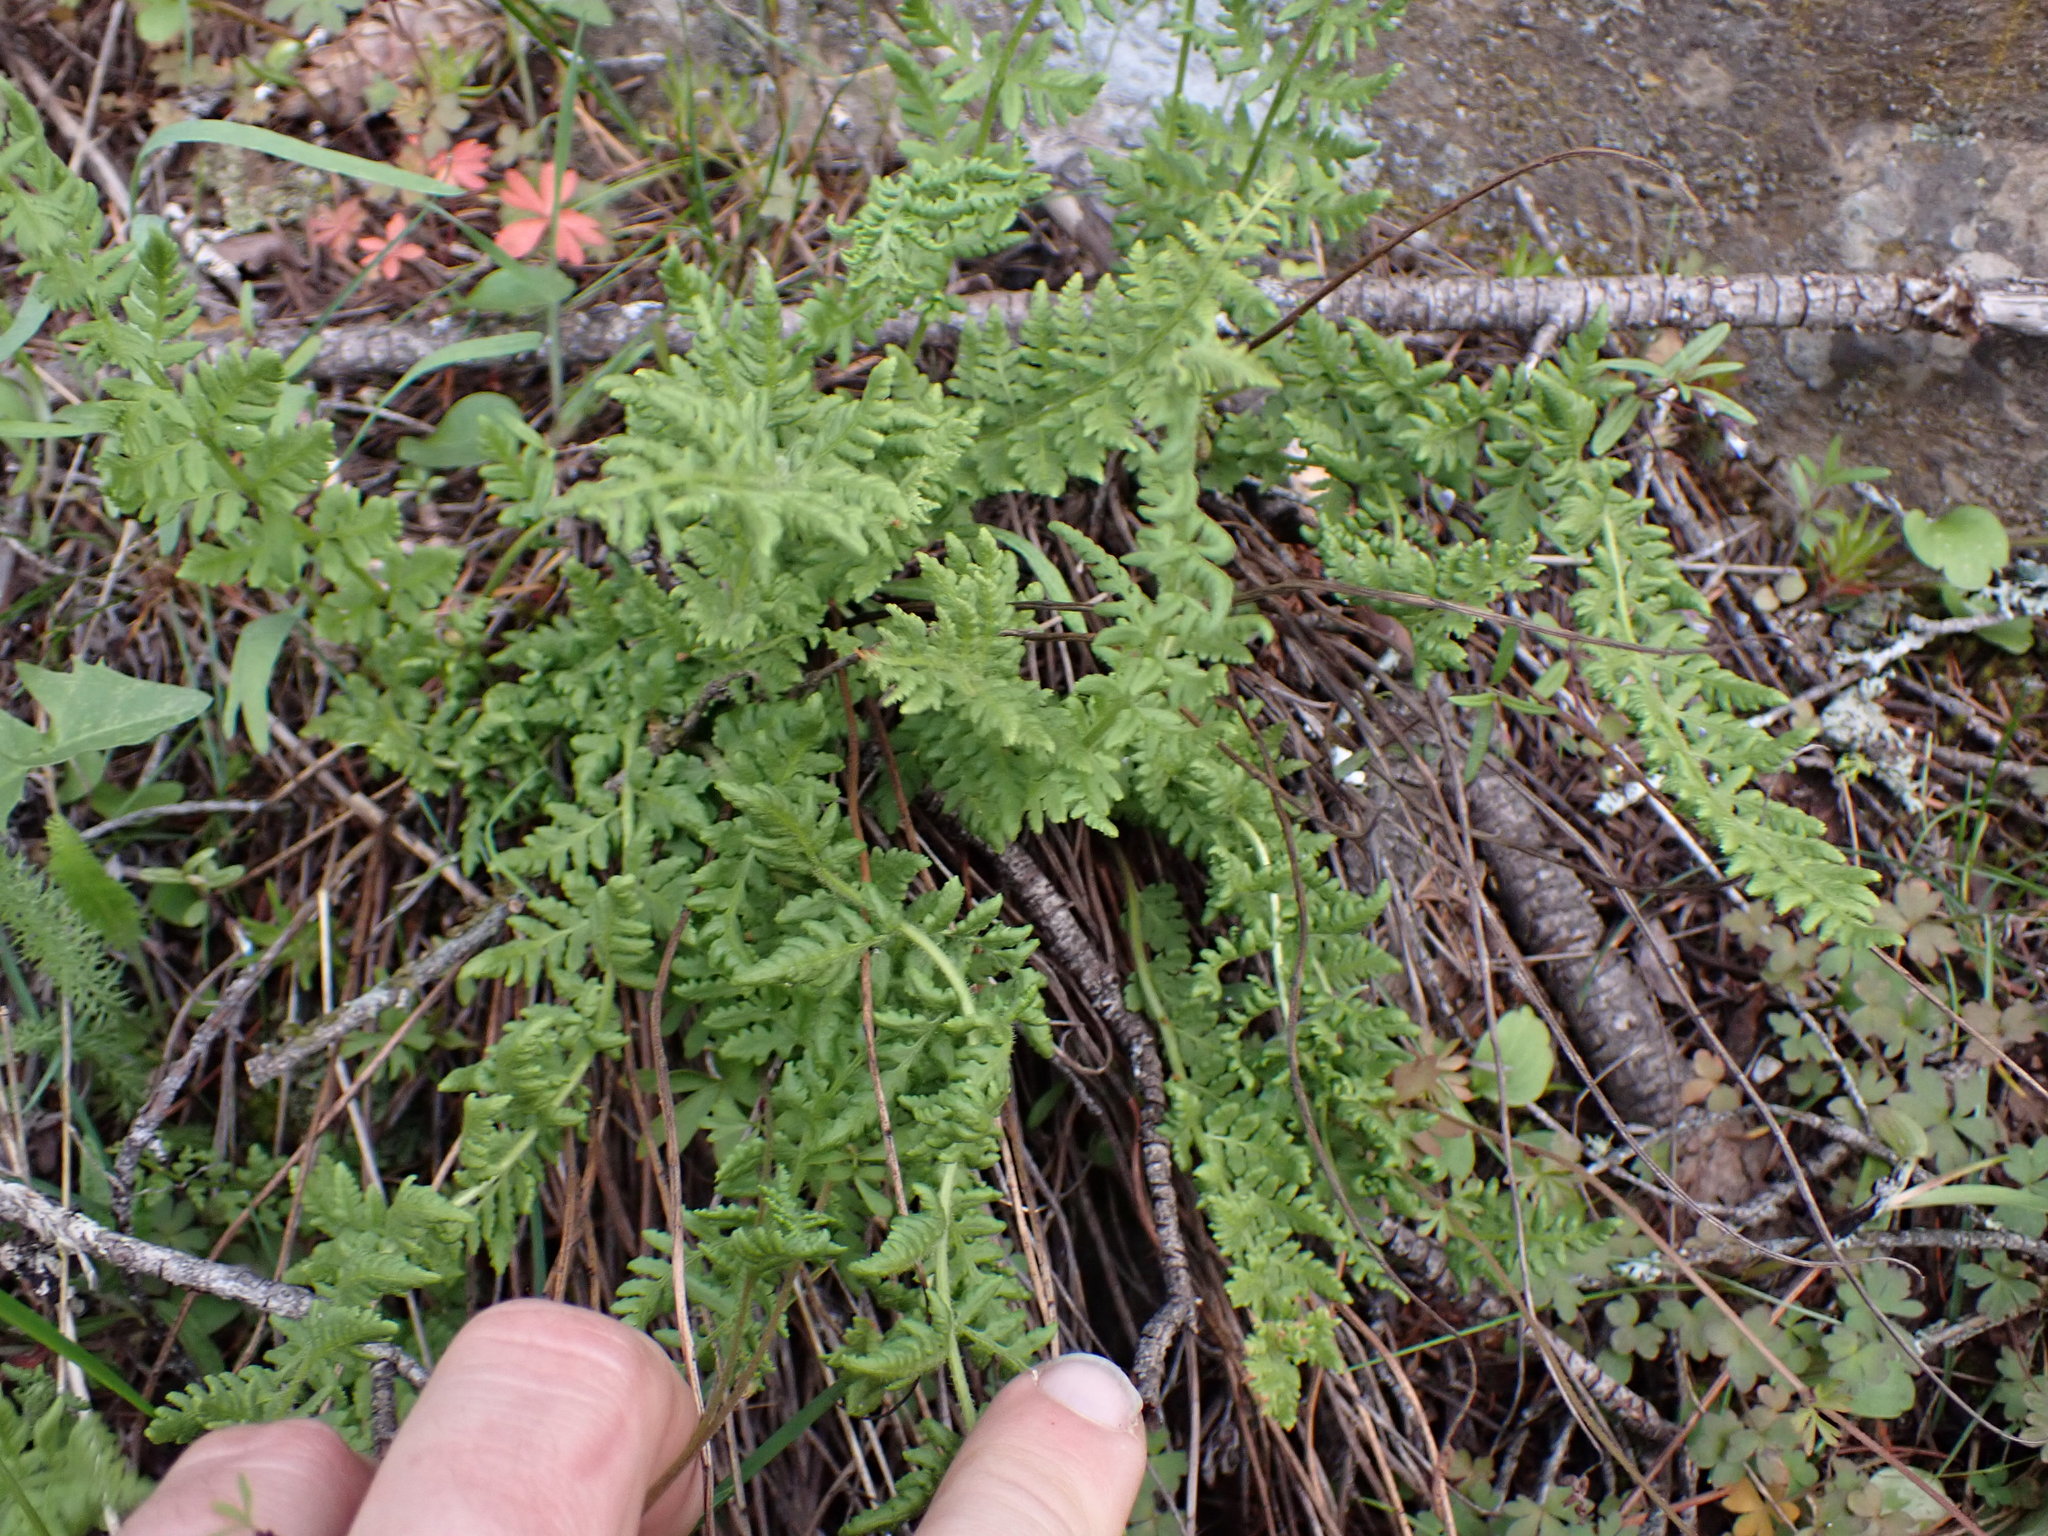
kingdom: Plantae
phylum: Tracheophyta
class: Polypodiopsida
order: Polypodiales
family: Woodsiaceae
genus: Physematium
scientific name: Physematium scopulinum
